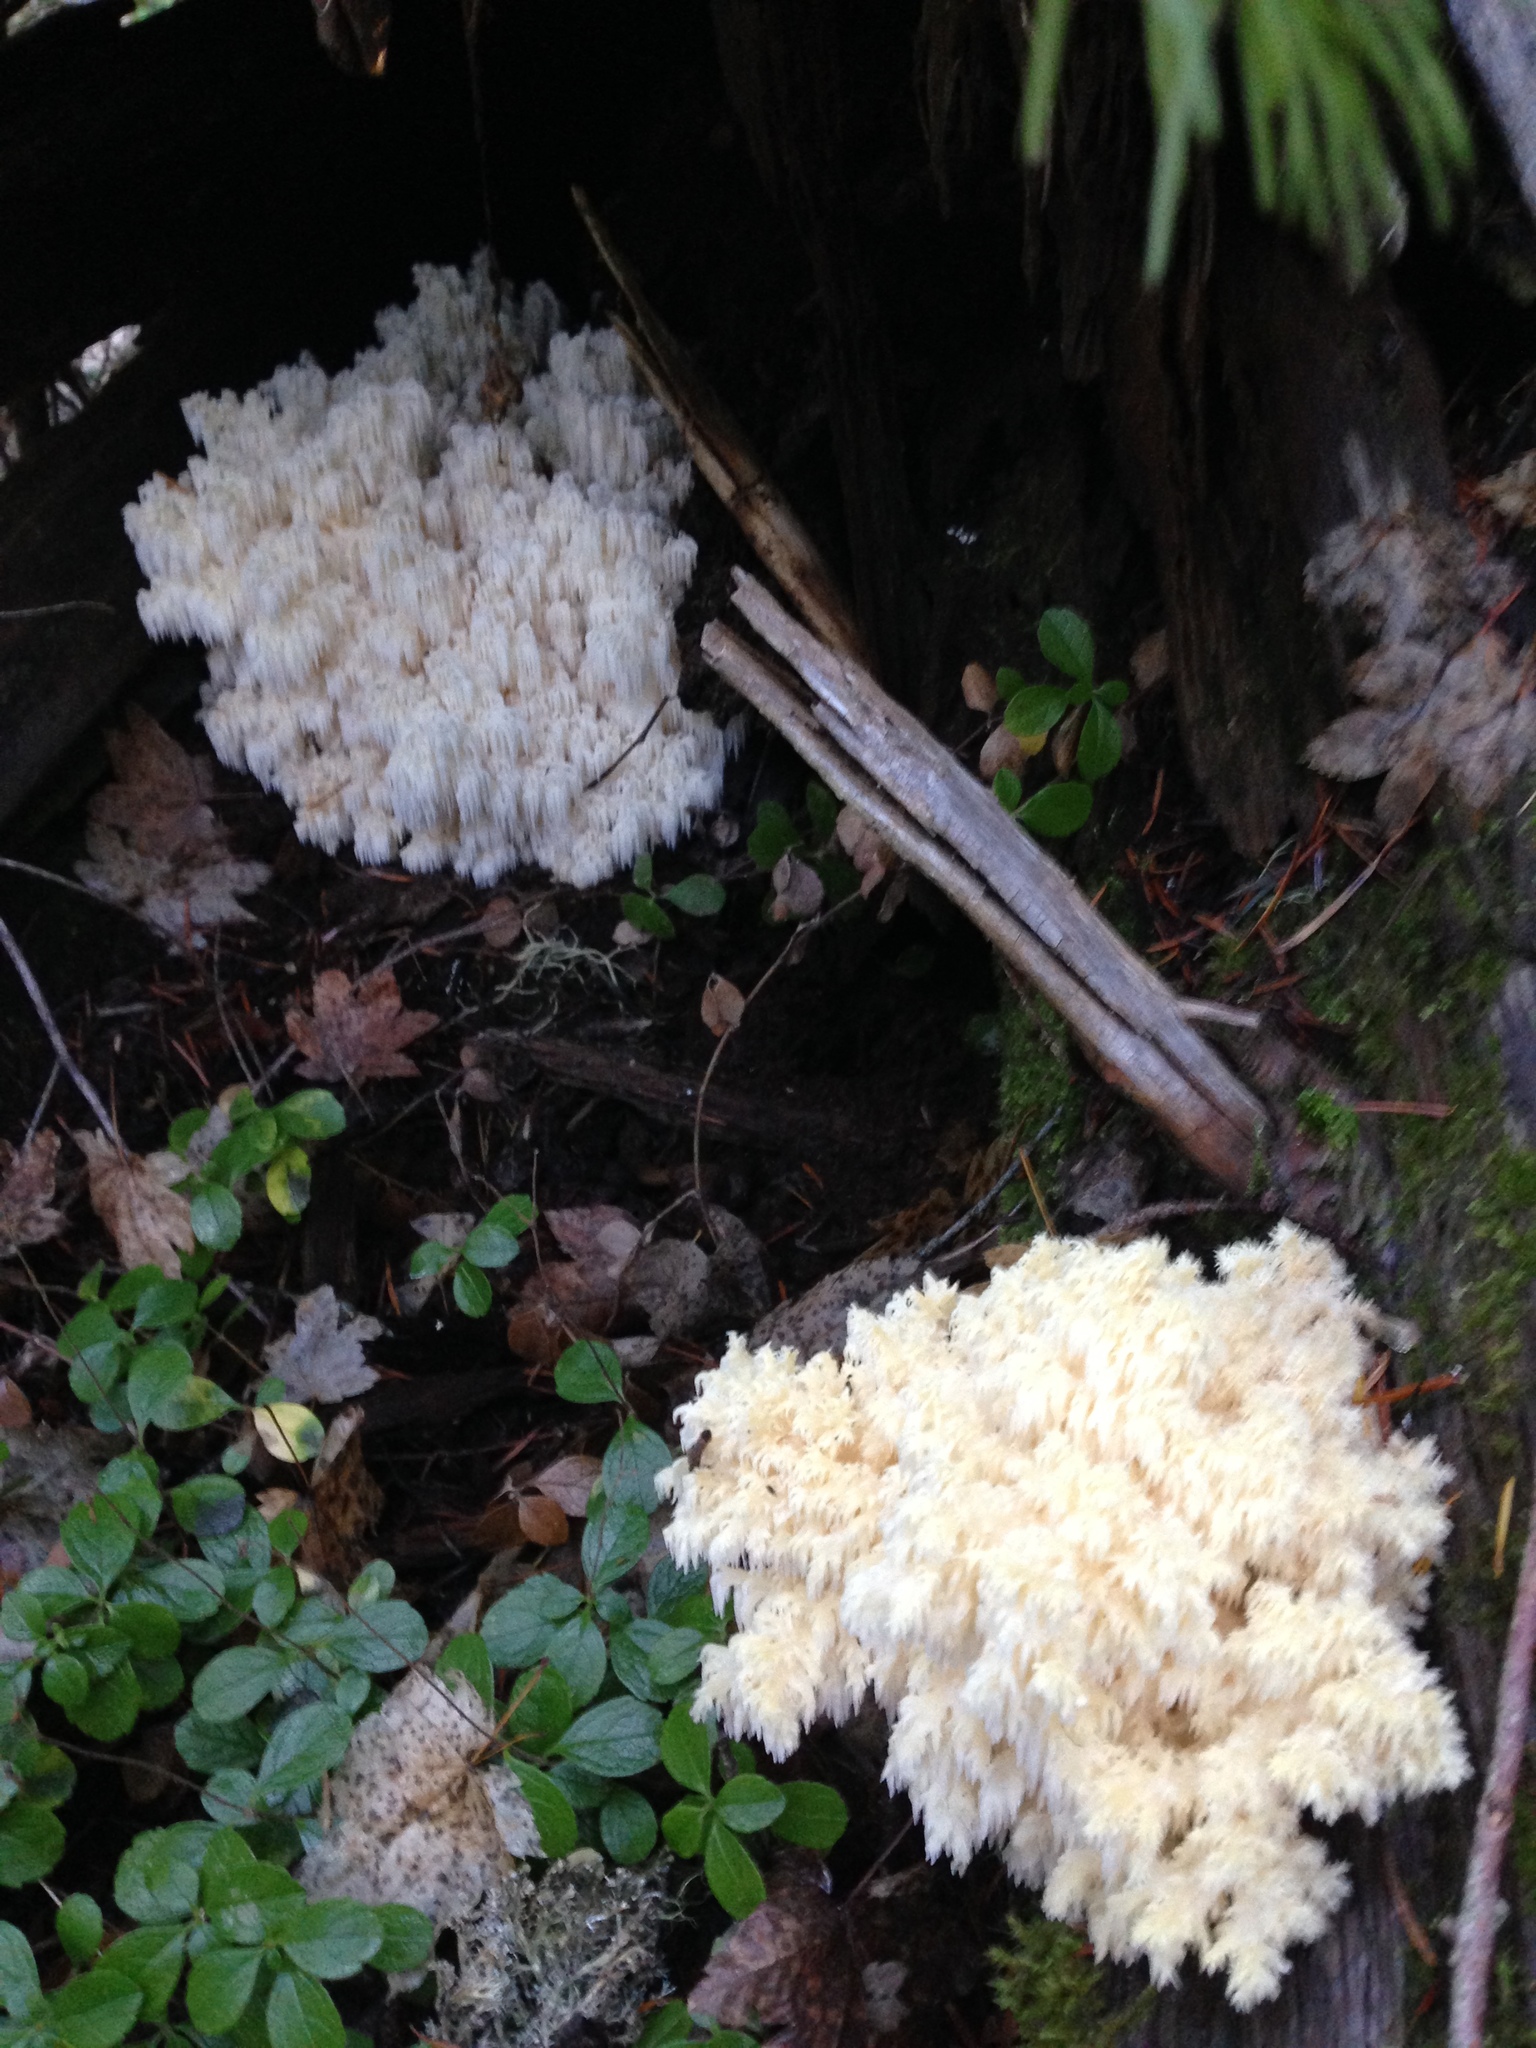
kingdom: Fungi
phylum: Basidiomycota
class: Agaricomycetes
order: Russulales
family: Hericiaceae
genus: Hericium
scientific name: Hericium abietis
